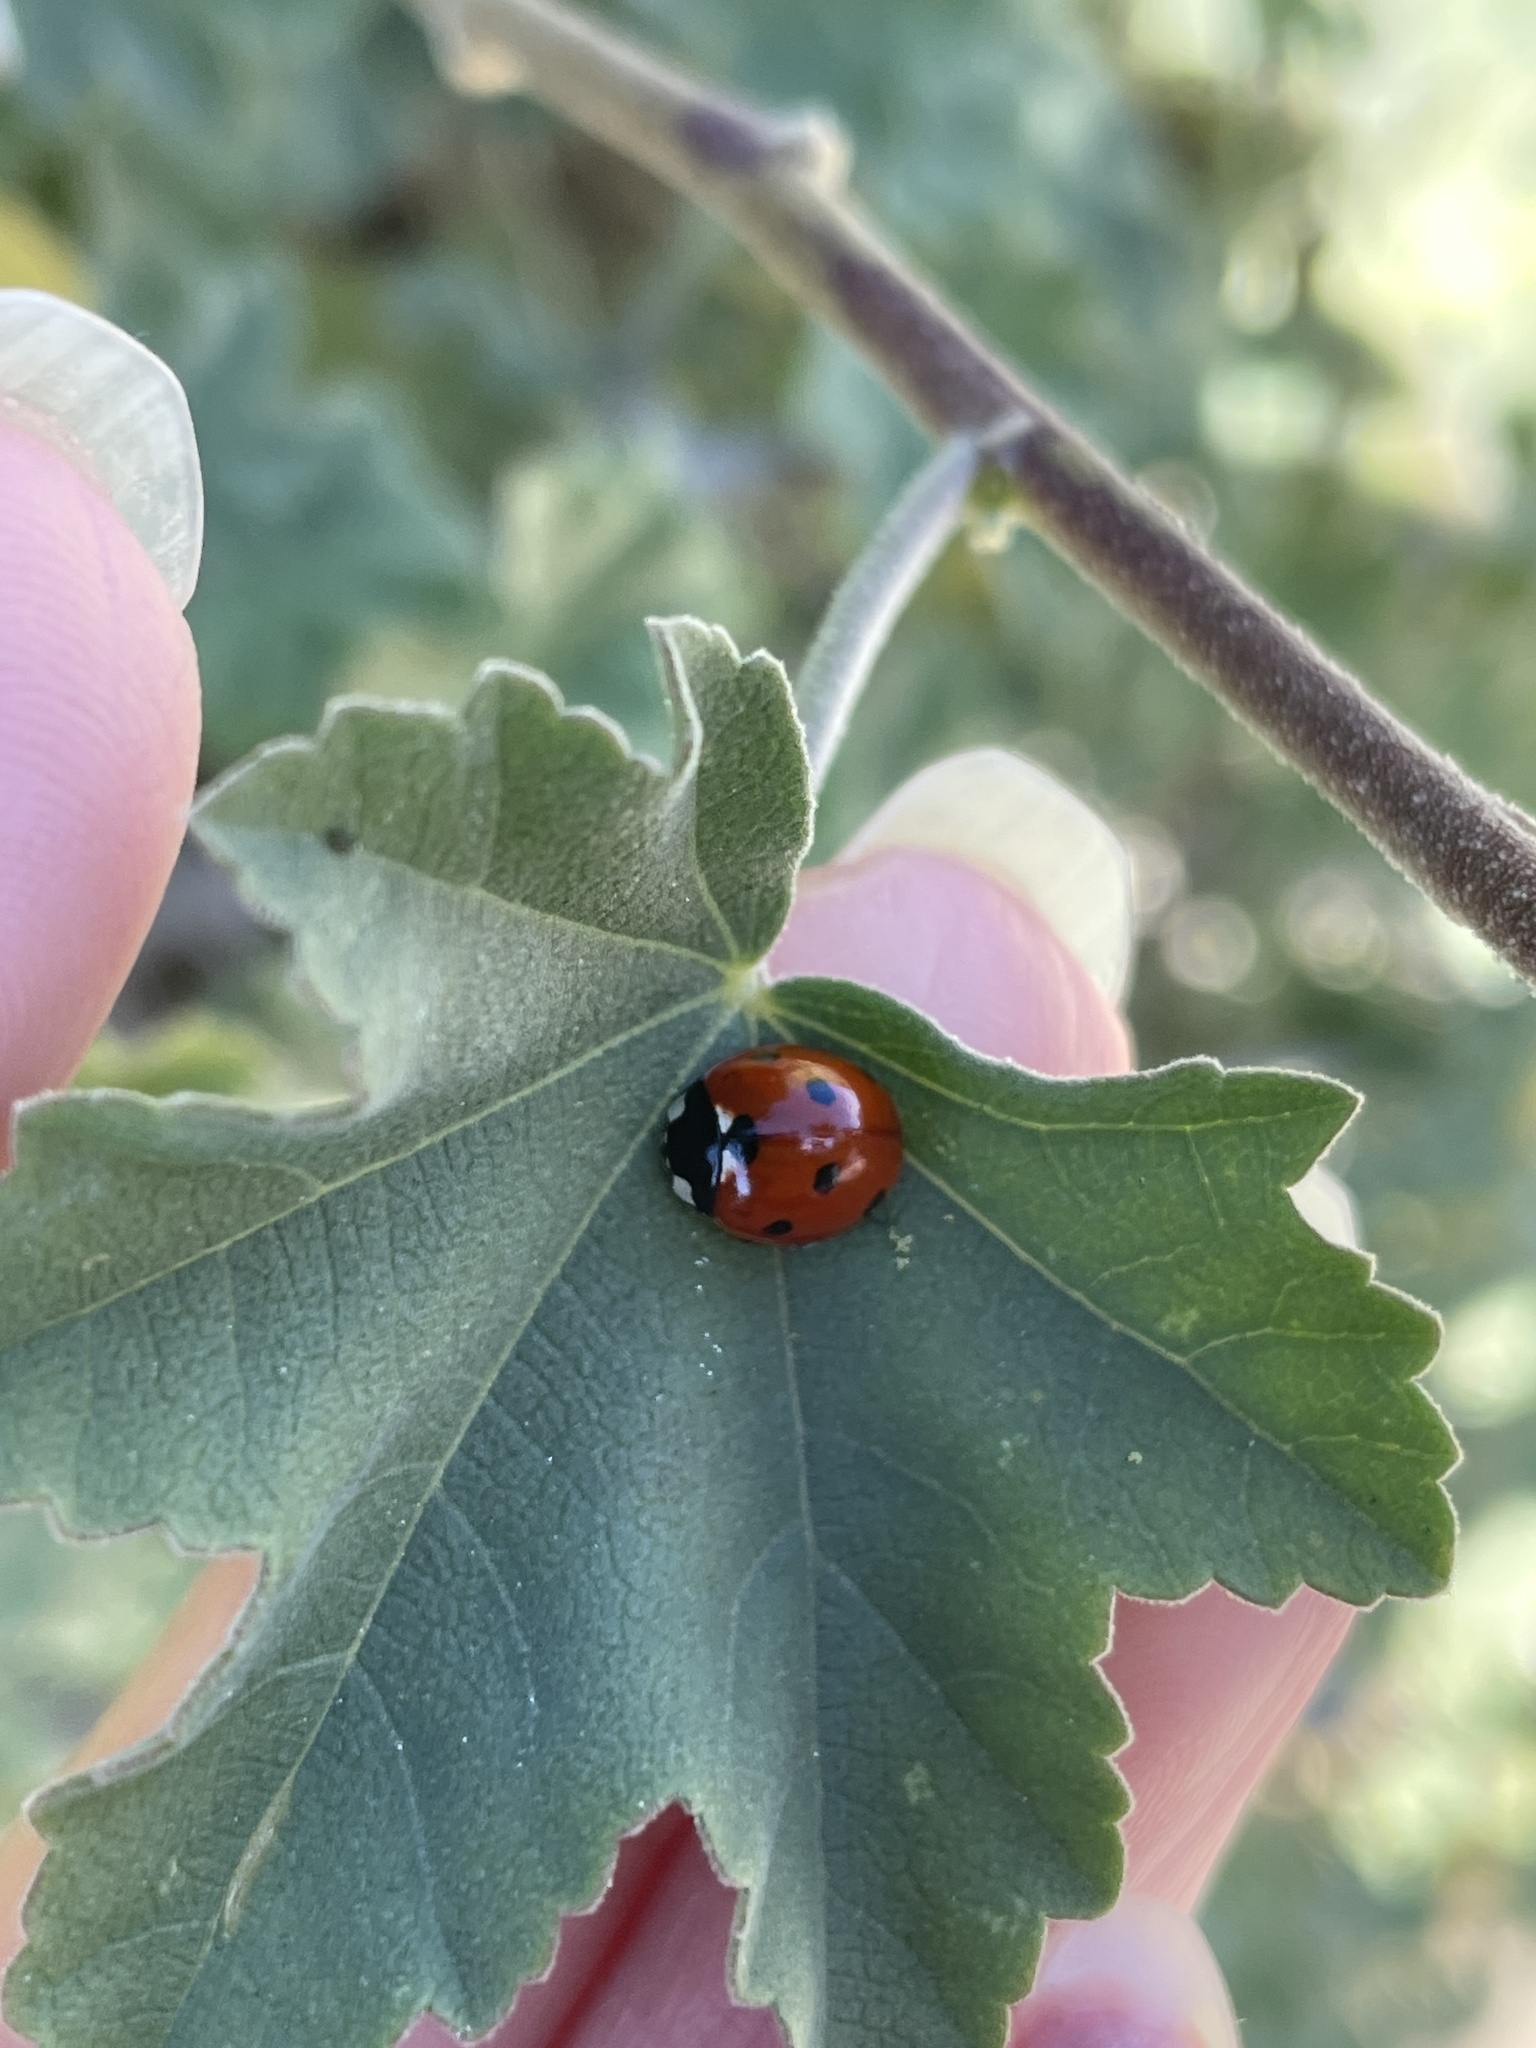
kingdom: Animalia
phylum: Arthropoda
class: Insecta
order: Coleoptera
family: Coccinellidae
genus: Coccinella
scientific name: Coccinella septempunctata
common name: Sevenspotted lady beetle
